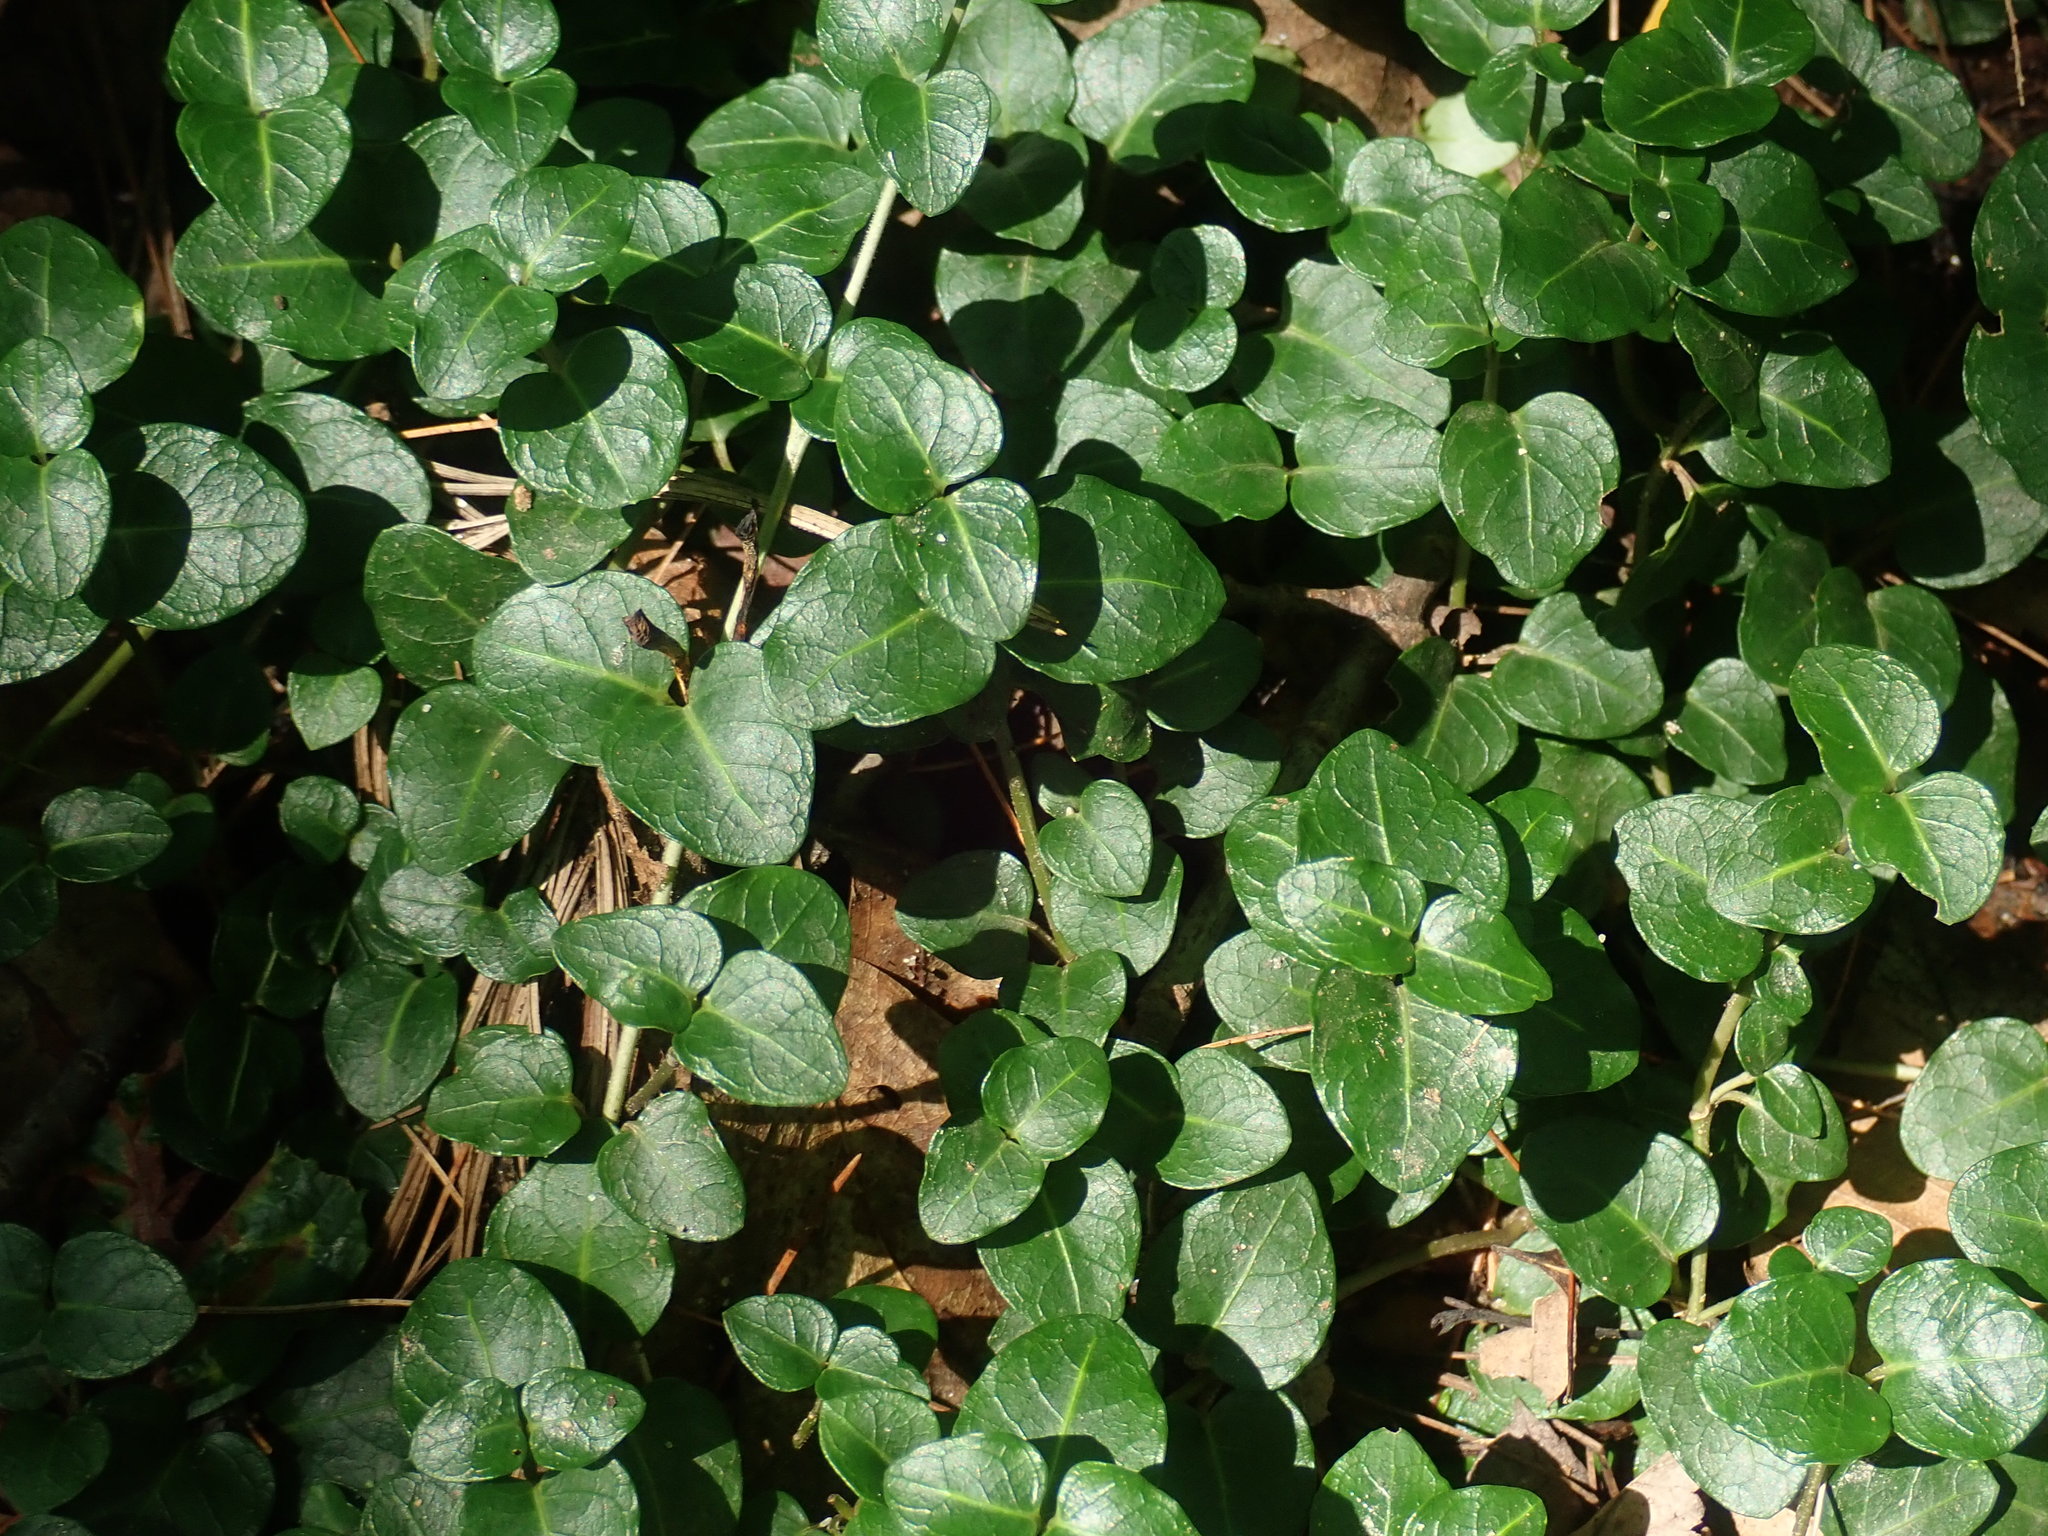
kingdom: Plantae
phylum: Tracheophyta
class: Magnoliopsida
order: Gentianales
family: Rubiaceae
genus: Mitchella
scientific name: Mitchella repens
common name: Partridge-berry
